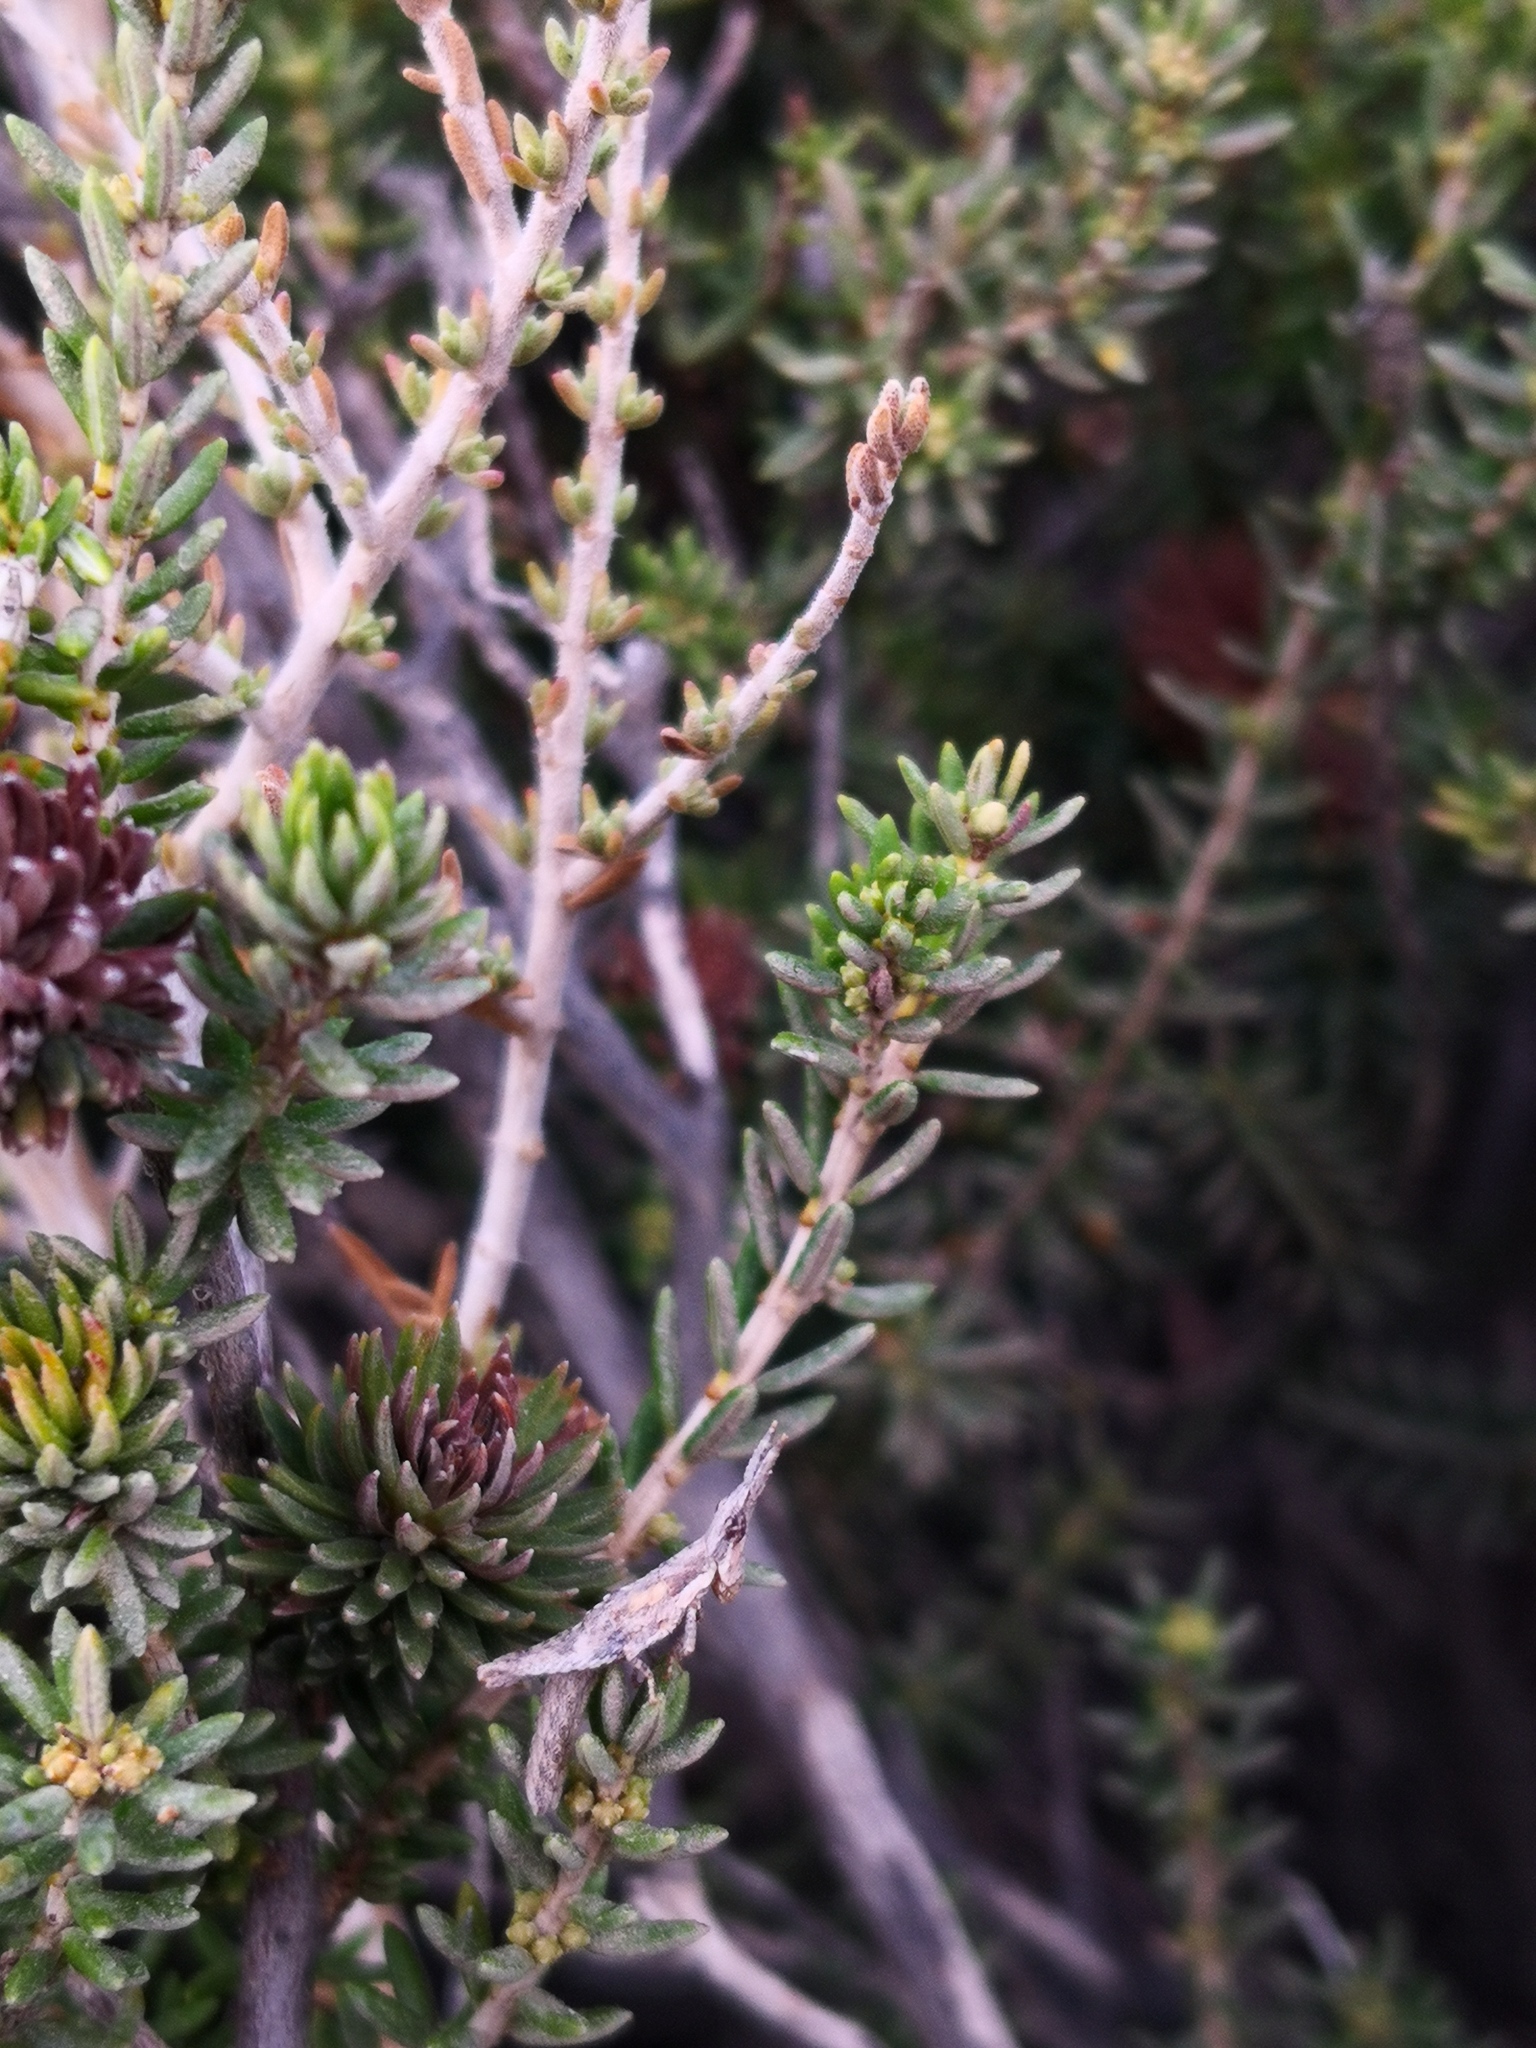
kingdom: Plantae
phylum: Tracheophyta
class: Magnoliopsida
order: Lamiales
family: Lamiaceae
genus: Thymbra
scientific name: Thymbra capitata
